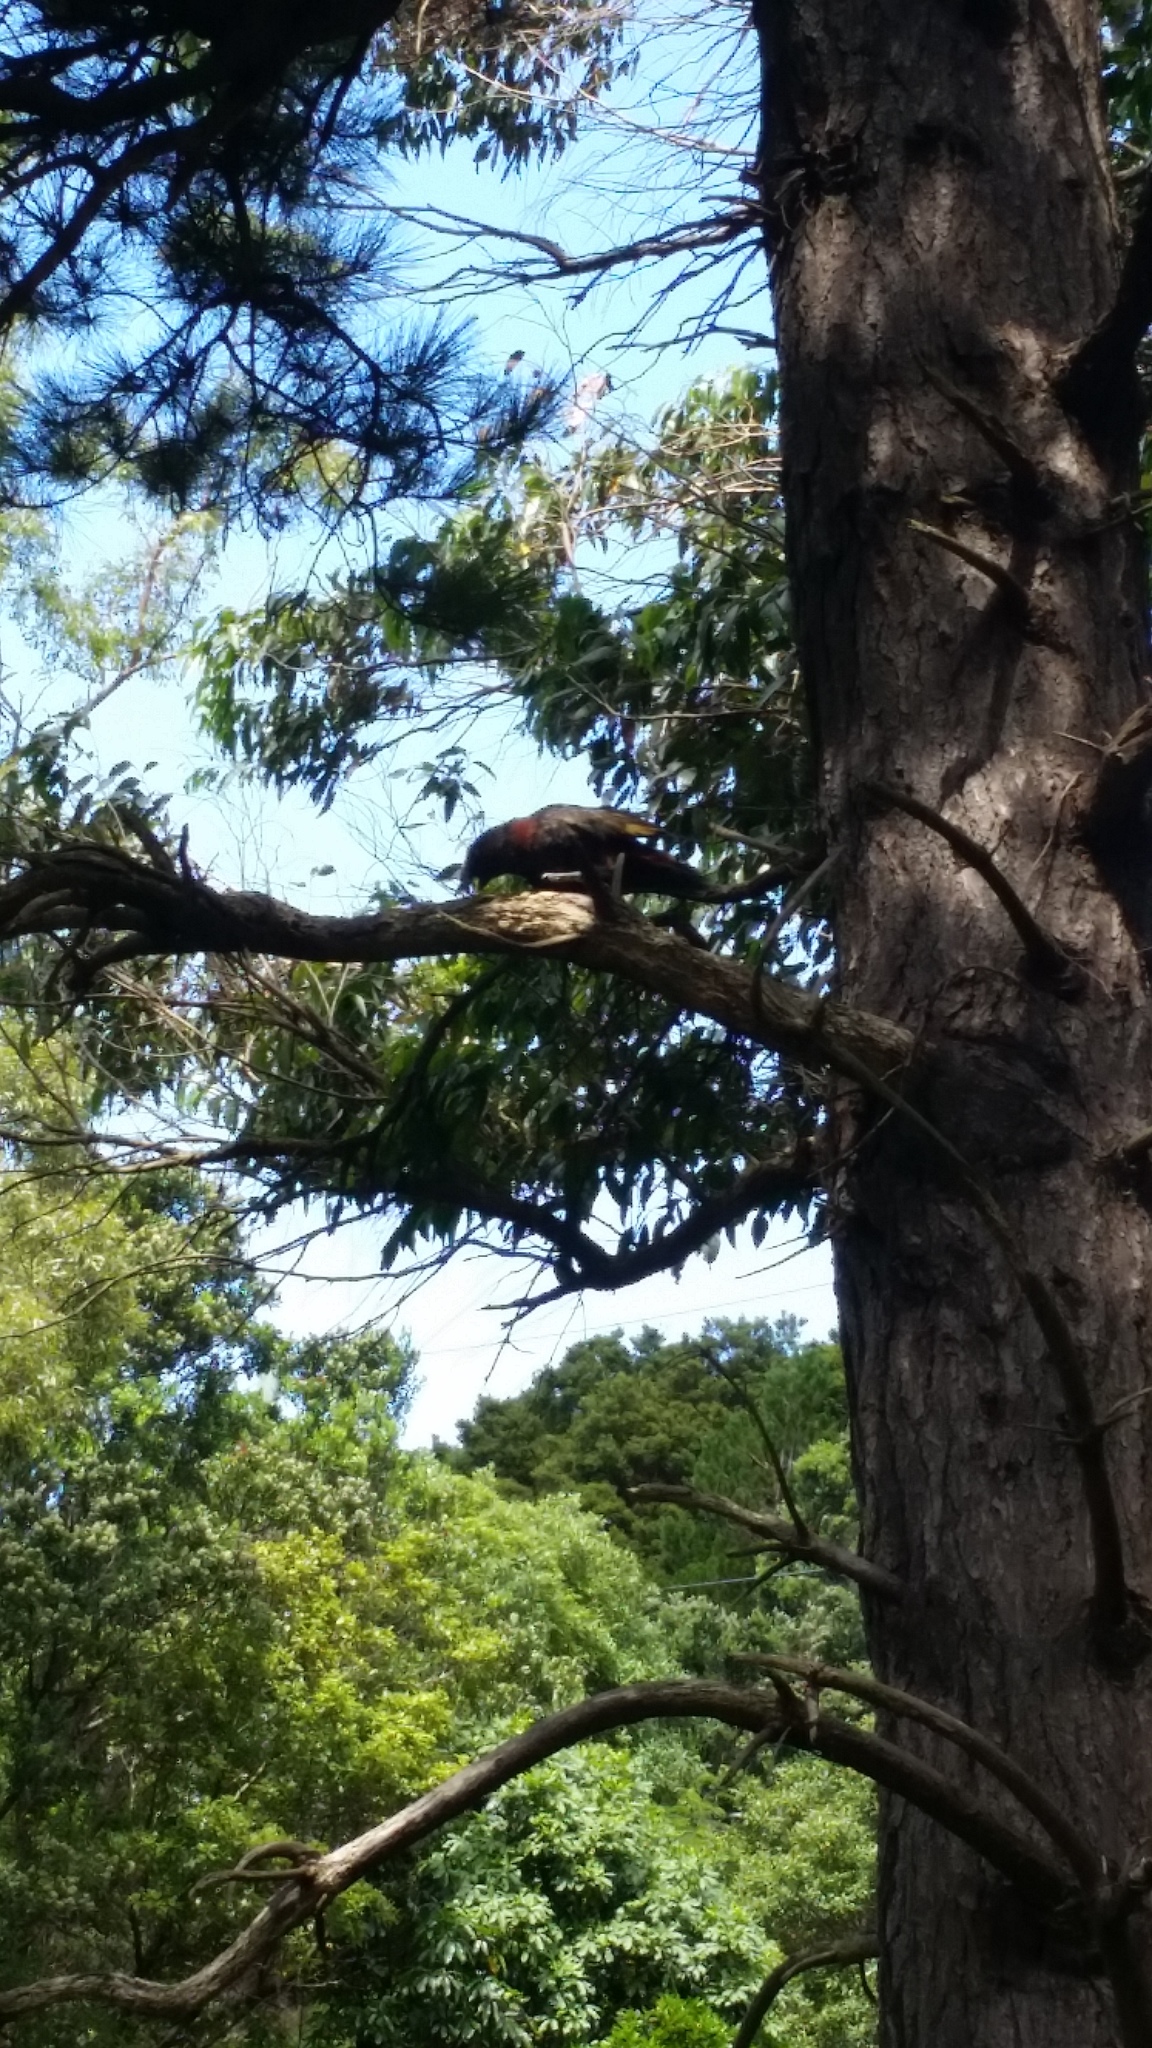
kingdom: Animalia
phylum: Chordata
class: Aves
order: Psittaciformes
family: Psittacidae
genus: Nestor
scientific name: Nestor meridionalis
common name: New zealand kaka
